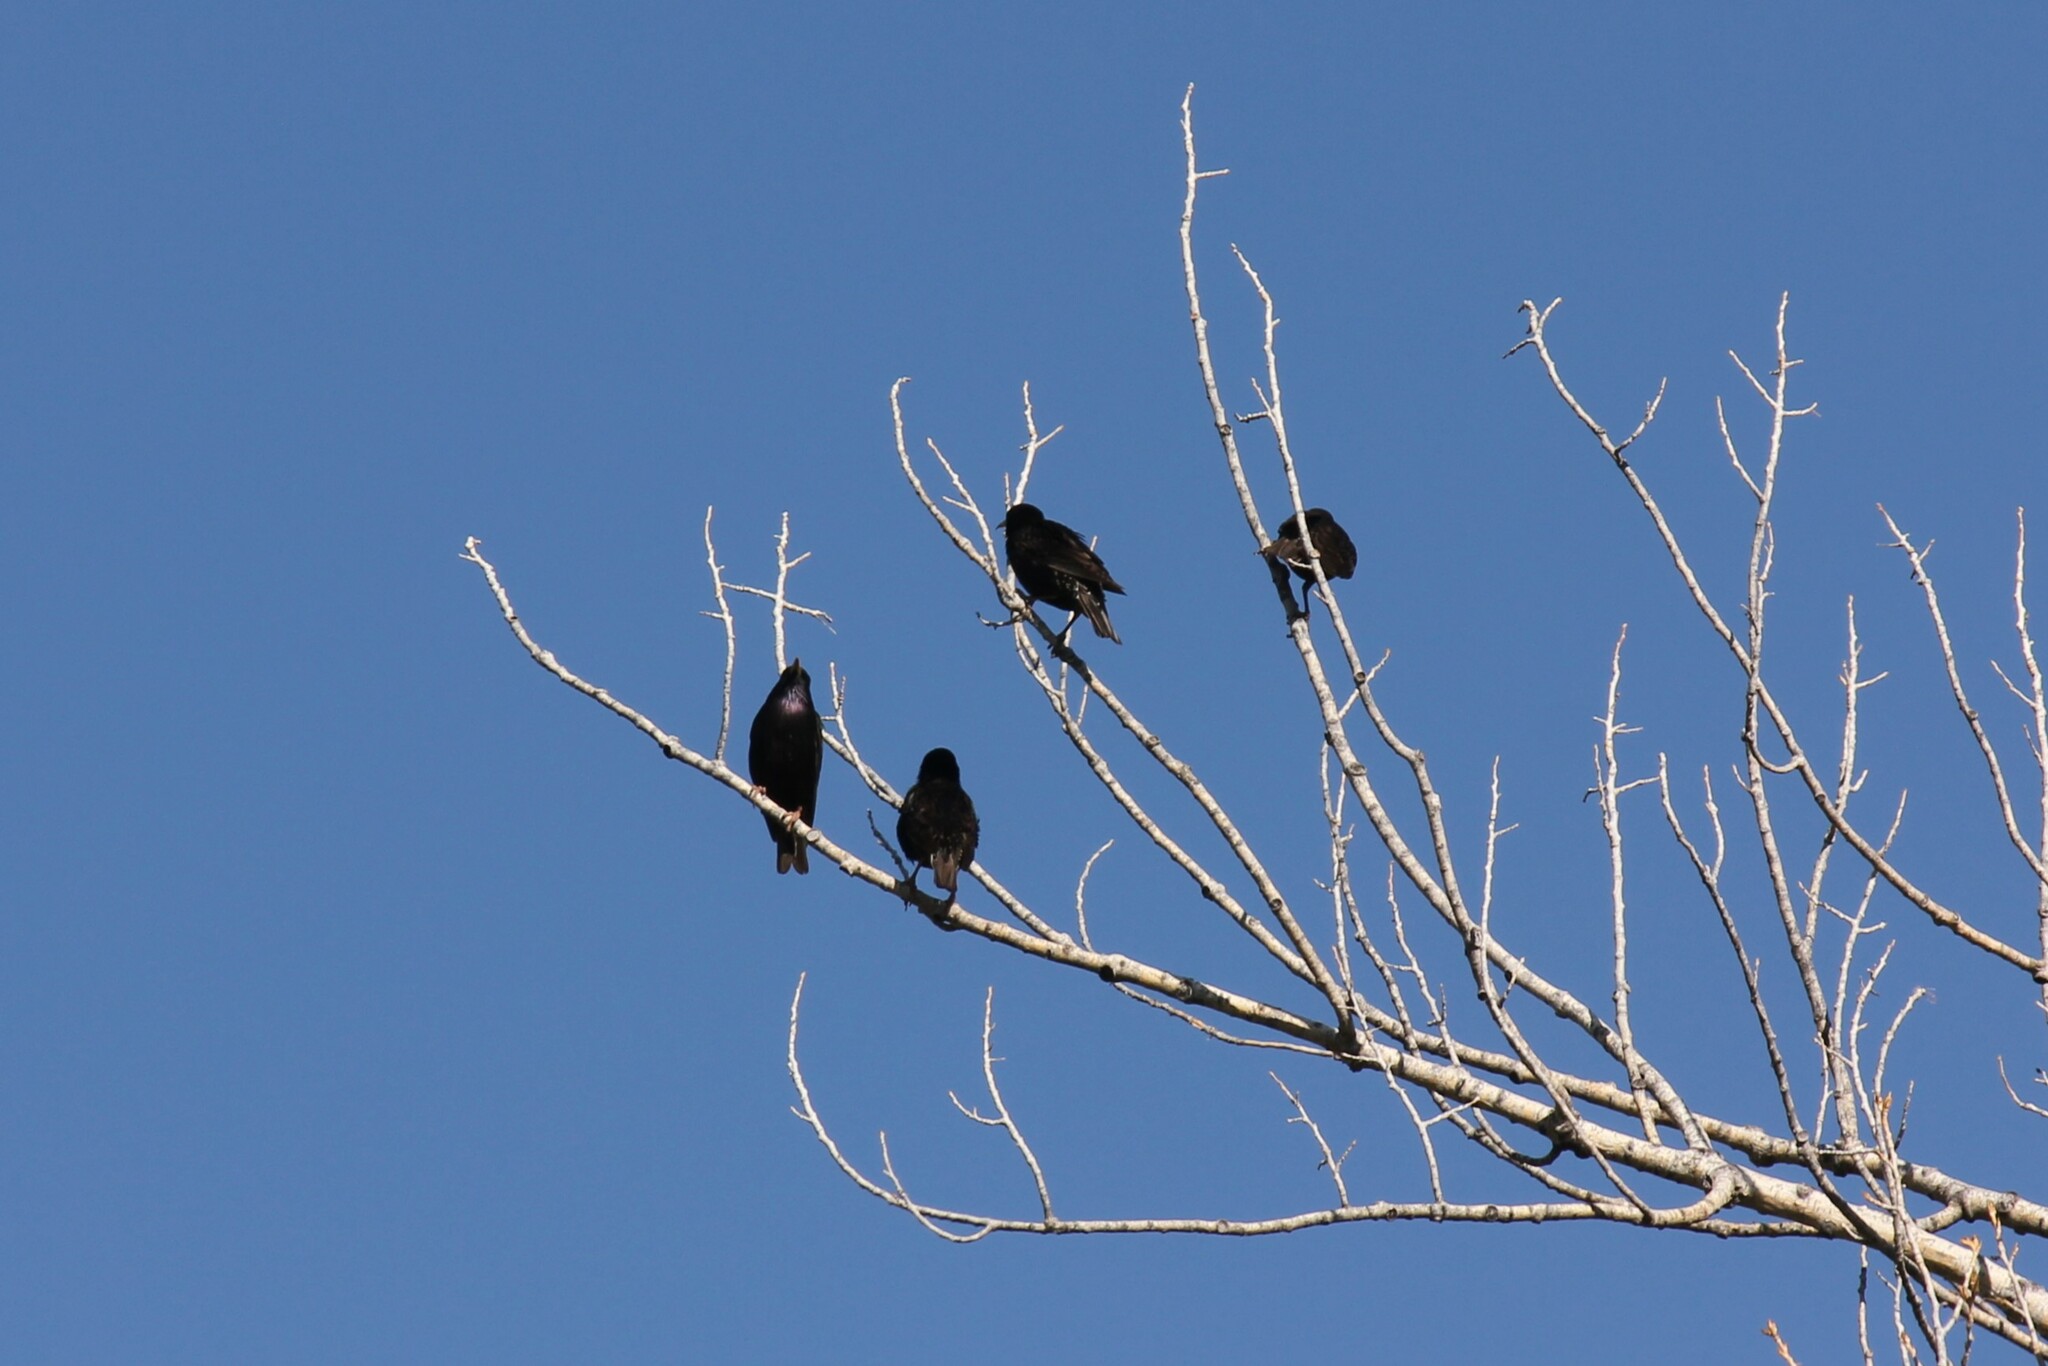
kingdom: Animalia
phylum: Chordata
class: Aves
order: Passeriformes
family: Sturnidae
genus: Sturnus
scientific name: Sturnus vulgaris
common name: Common starling
